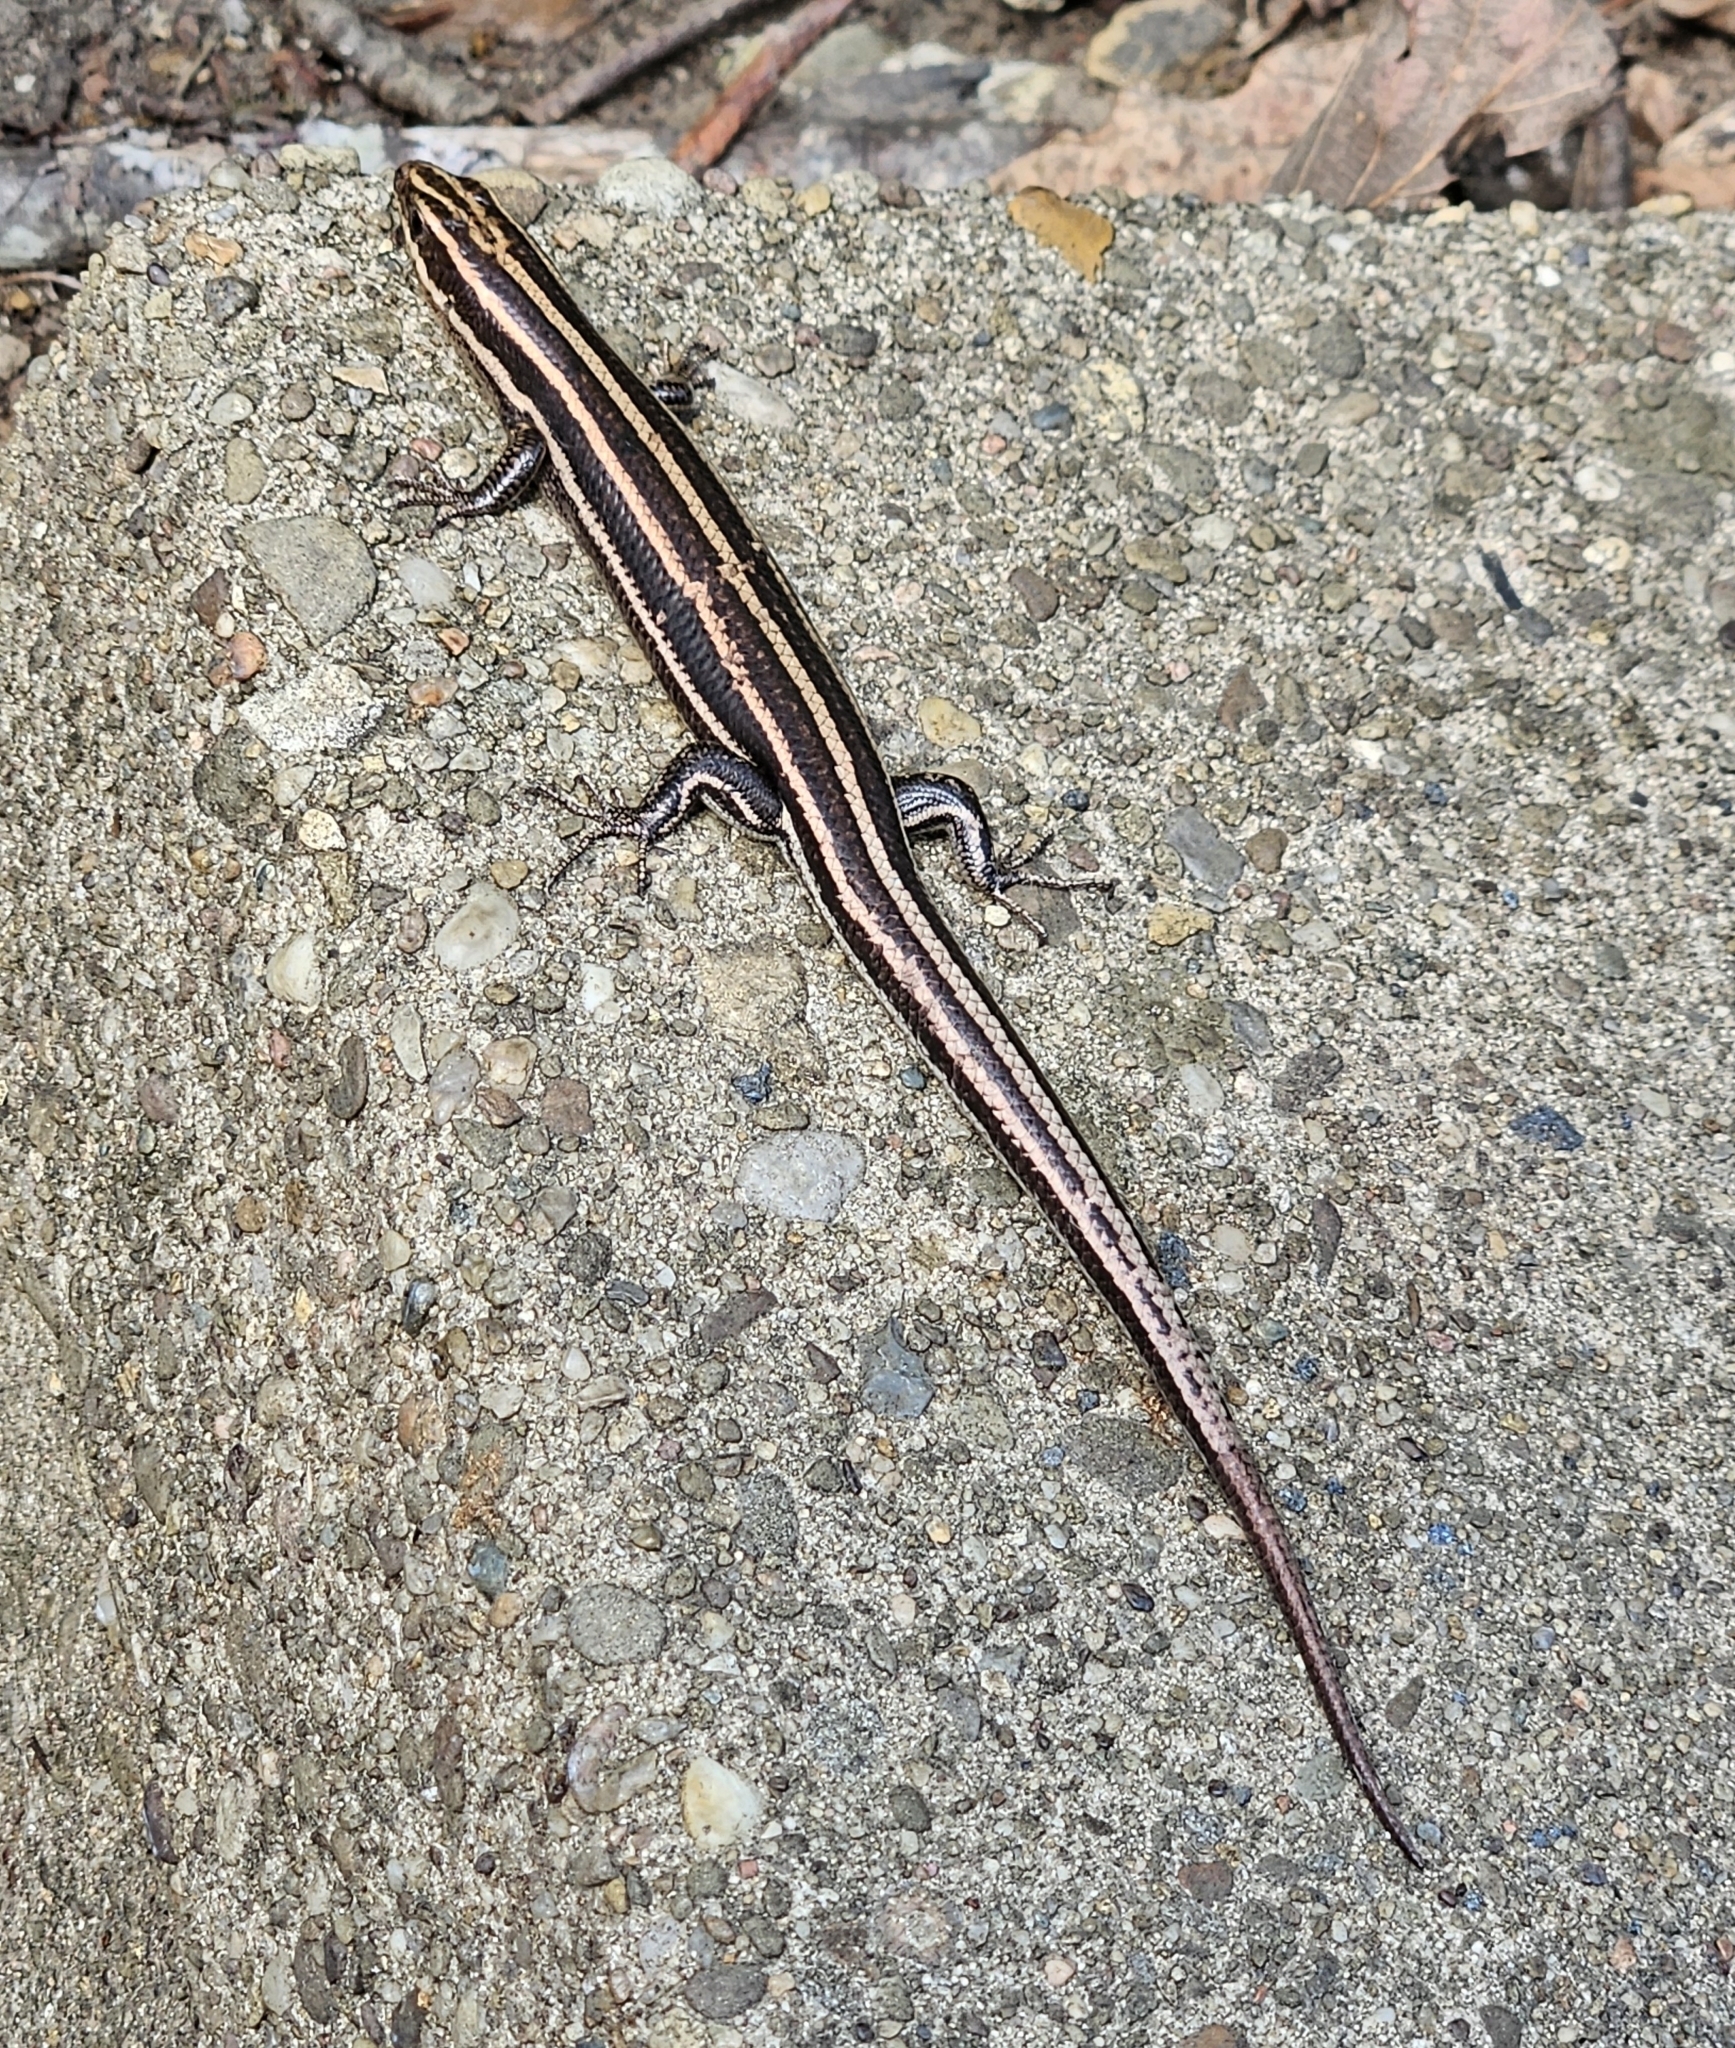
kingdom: Animalia
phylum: Chordata
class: Squamata
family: Scincidae
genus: Plestiodon
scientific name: Plestiodon fasciatus
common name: Five-lined skink
